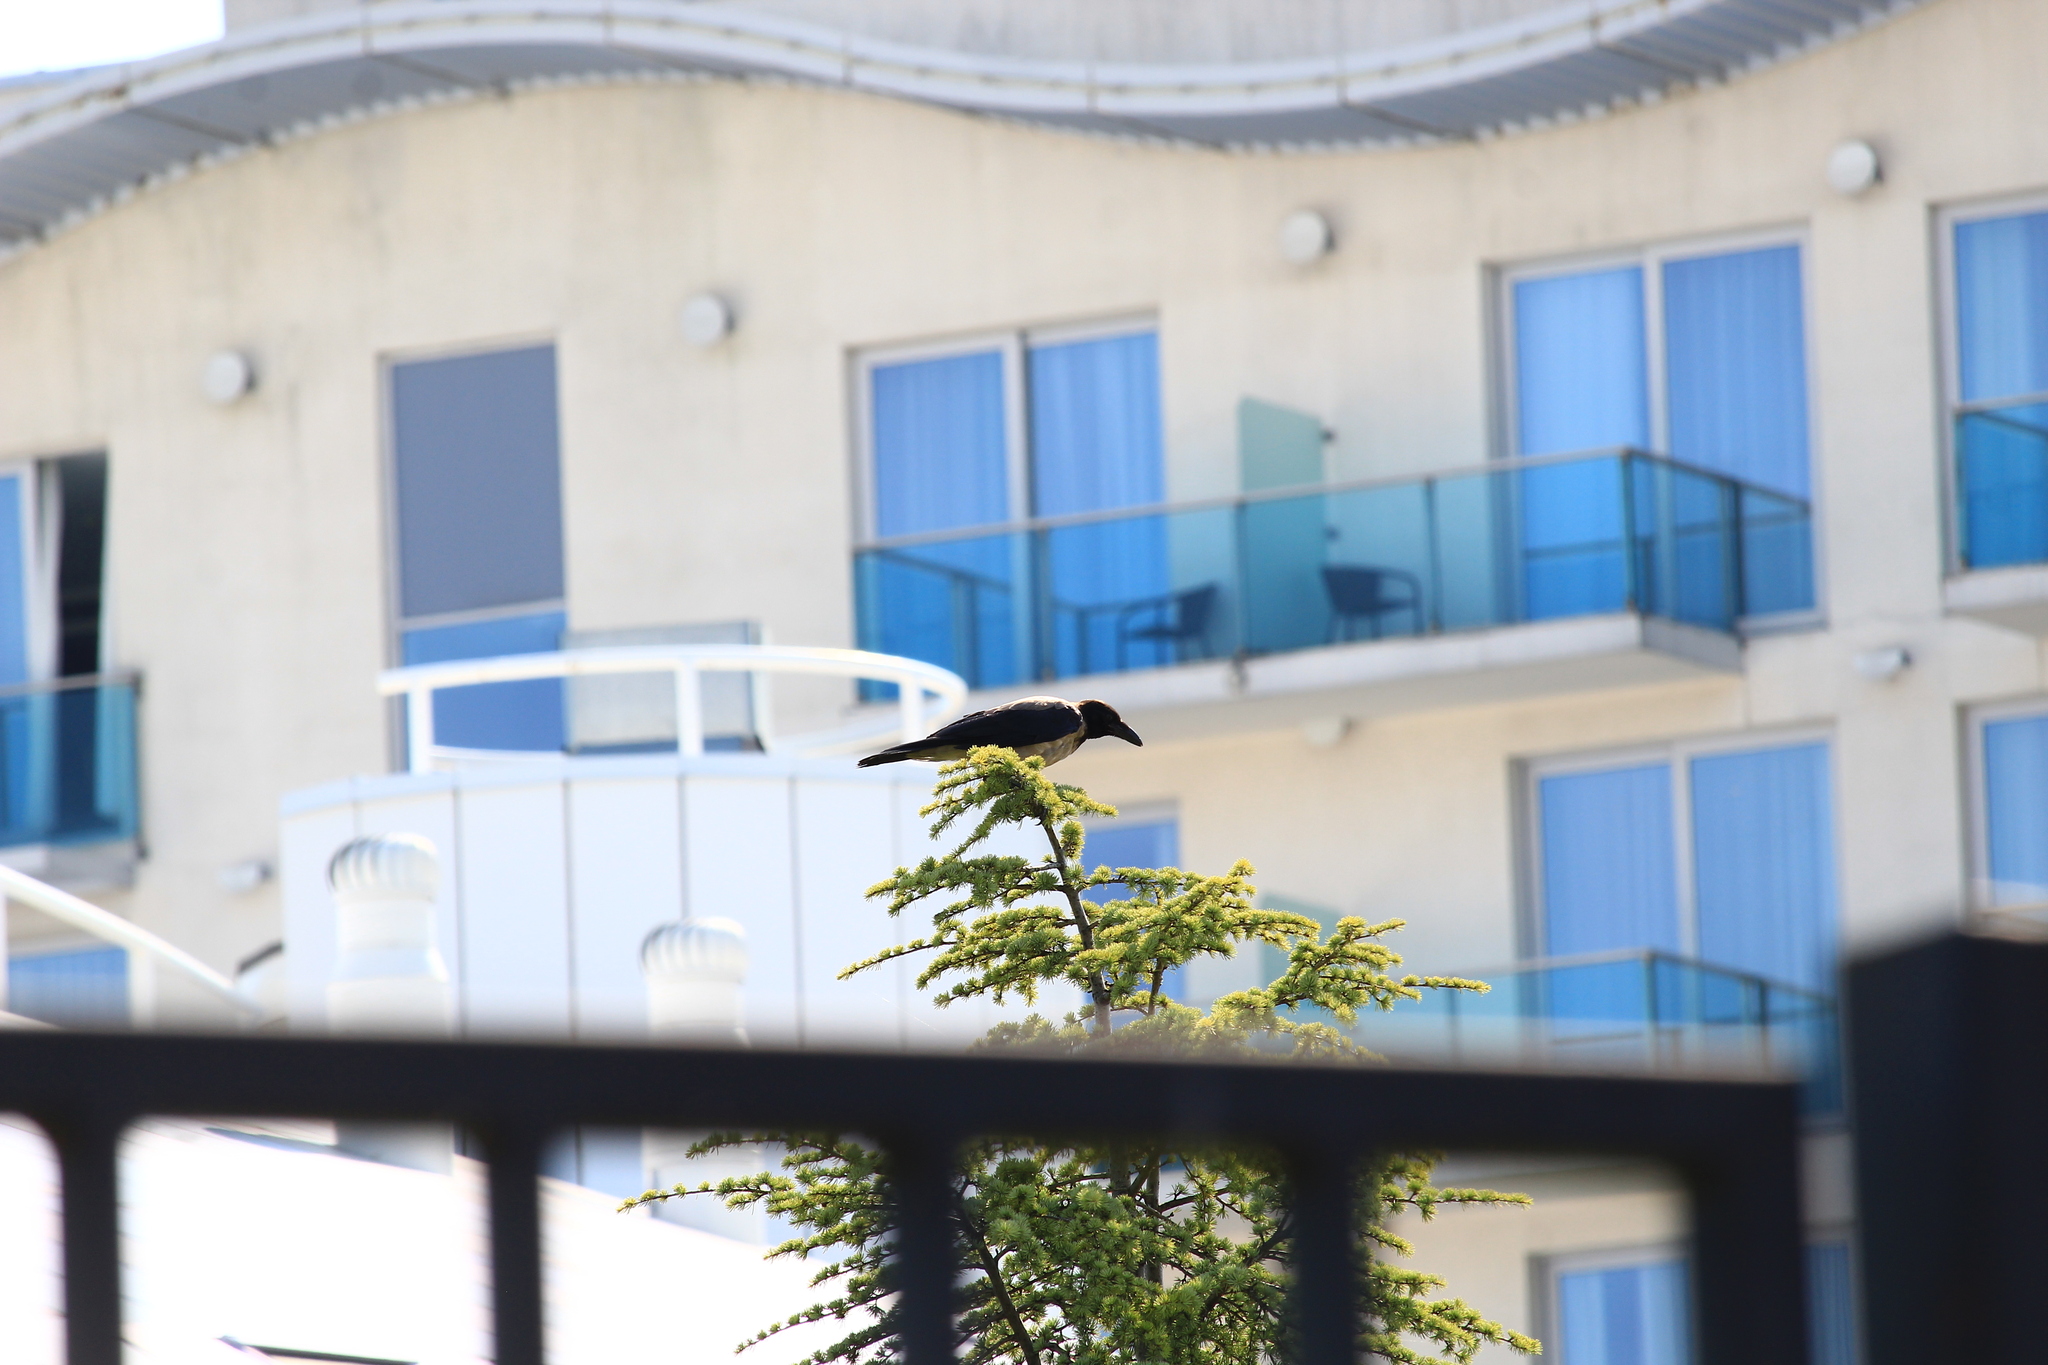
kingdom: Animalia
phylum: Chordata
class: Aves
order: Passeriformes
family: Corvidae
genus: Corvus
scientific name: Corvus cornix
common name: Hooded crow
